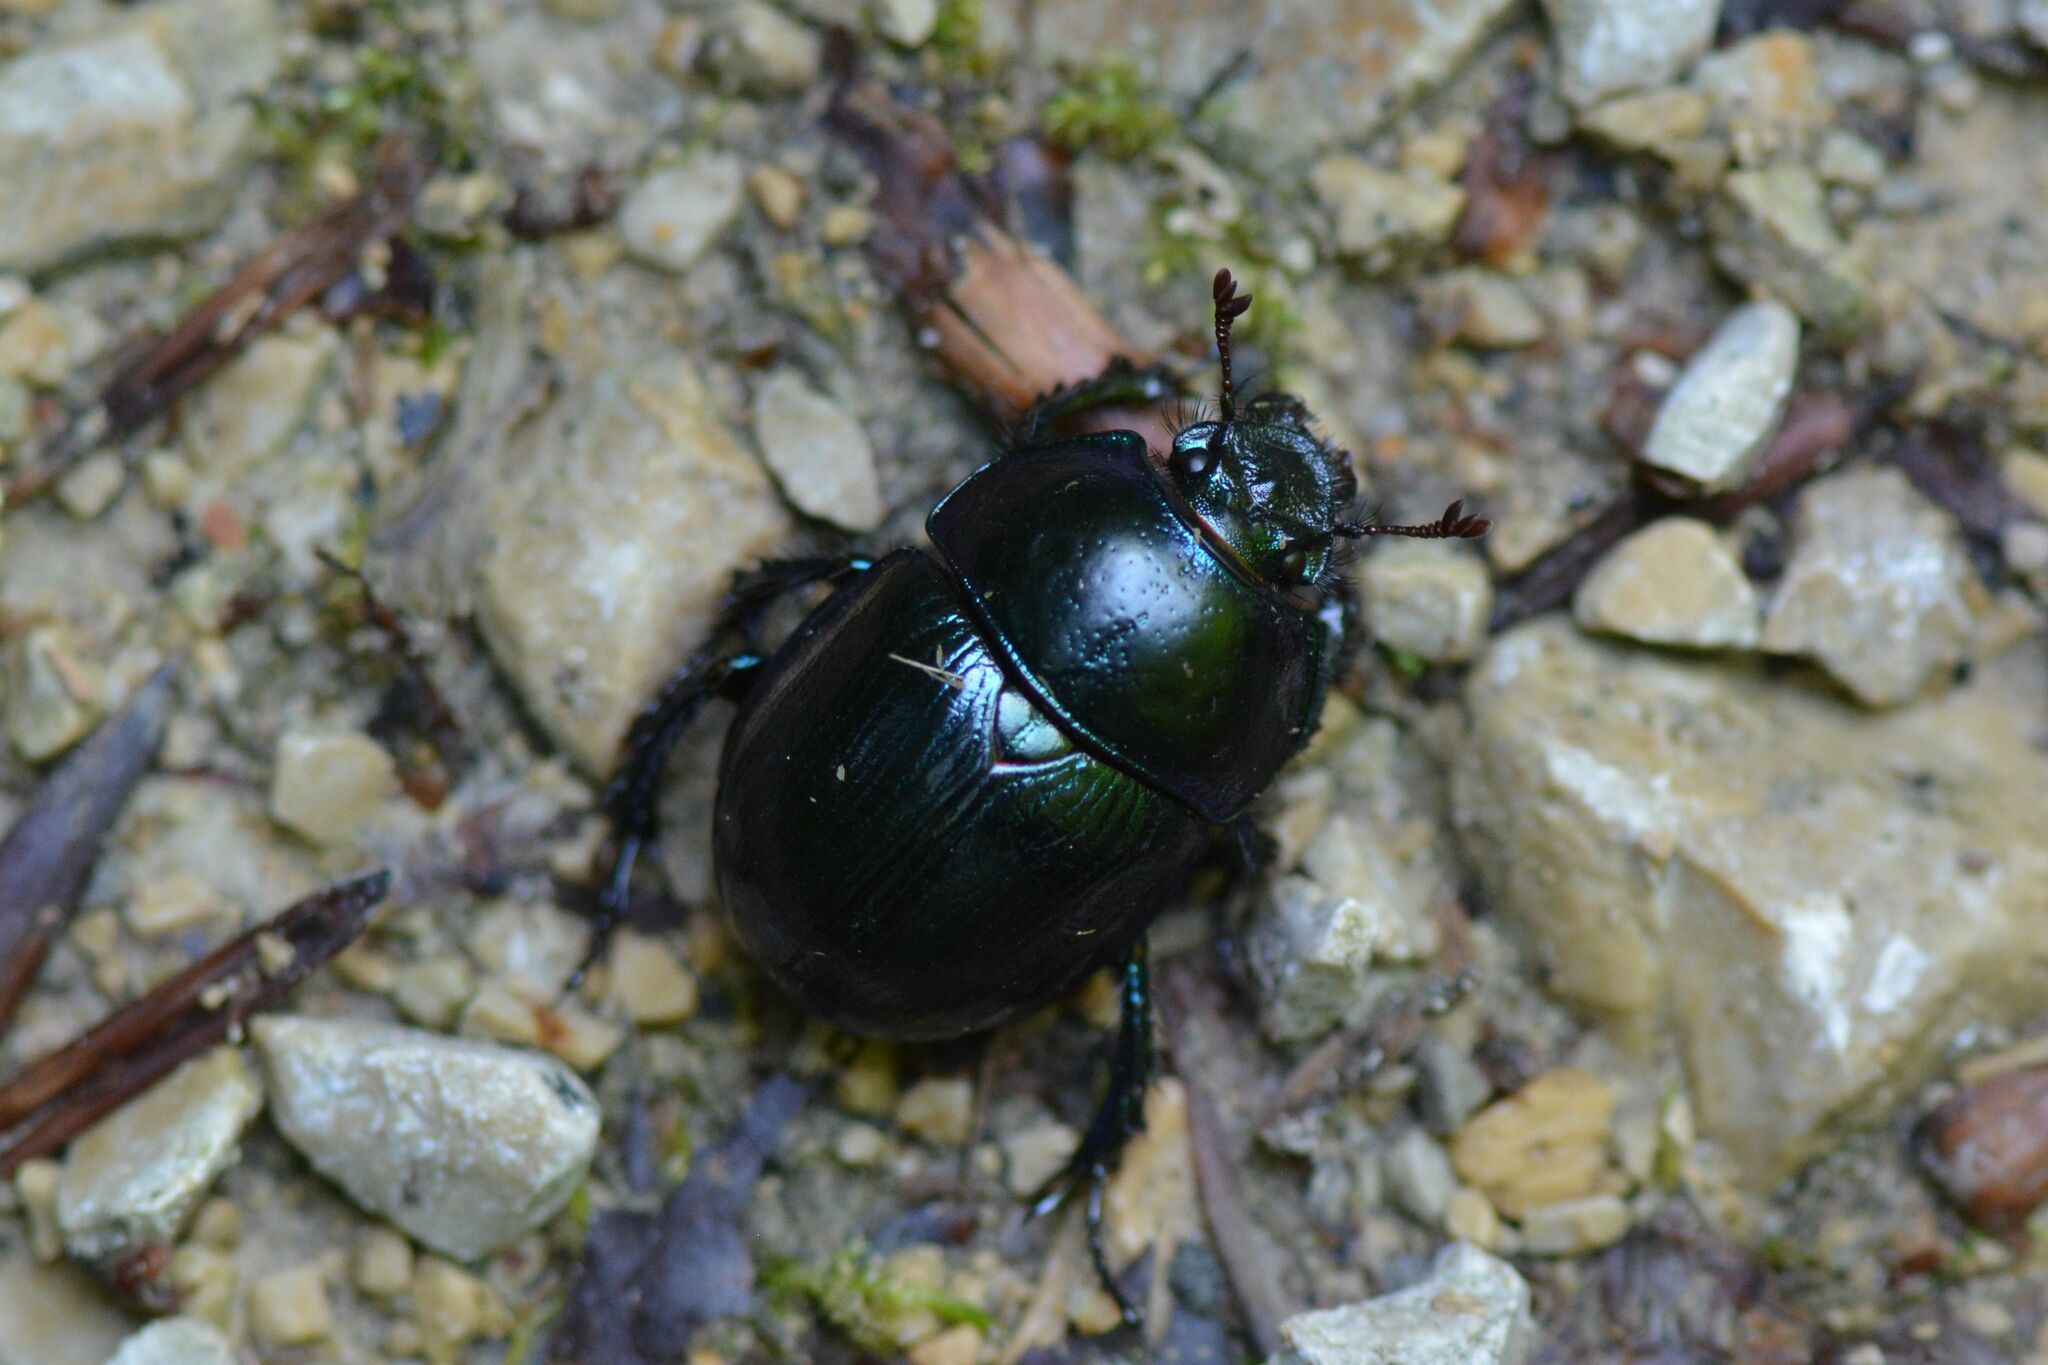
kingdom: Animalia
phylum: Arthropoda
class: Insecta
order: Coleoptera
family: Geotrupidae
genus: Anoplotrupes
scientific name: Anoplotrupes stercorosus
